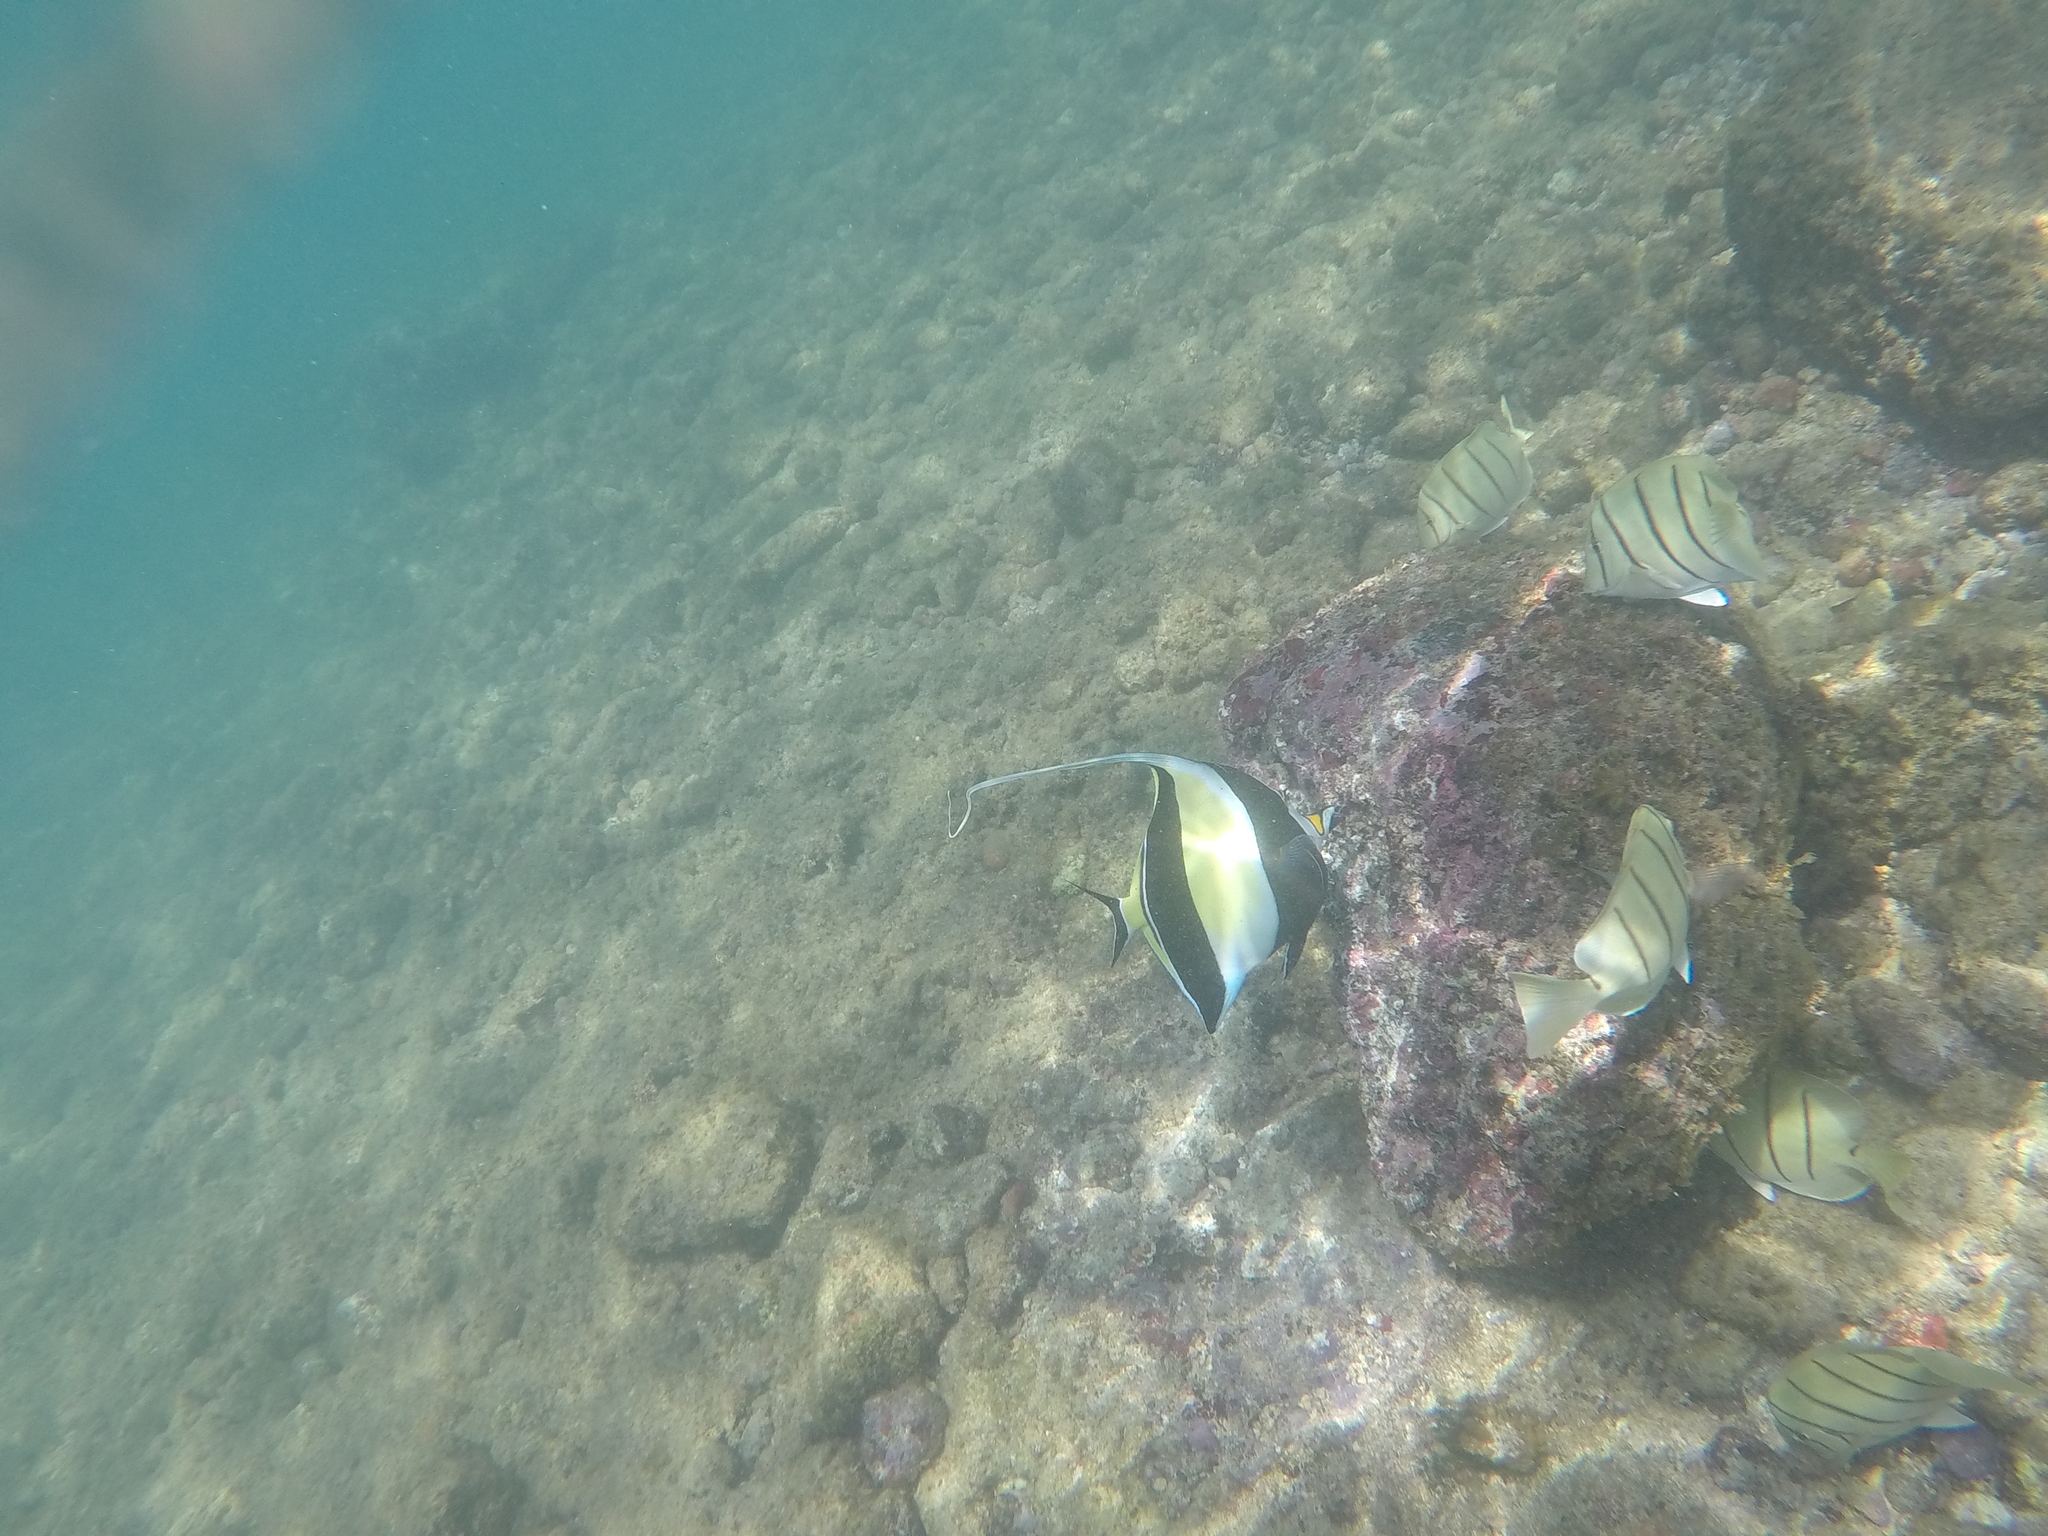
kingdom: Animalia
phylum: Chordata
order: Perciformes
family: Zanclidae
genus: Zanclus
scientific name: Zanclus cornutus
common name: Moorish idol
